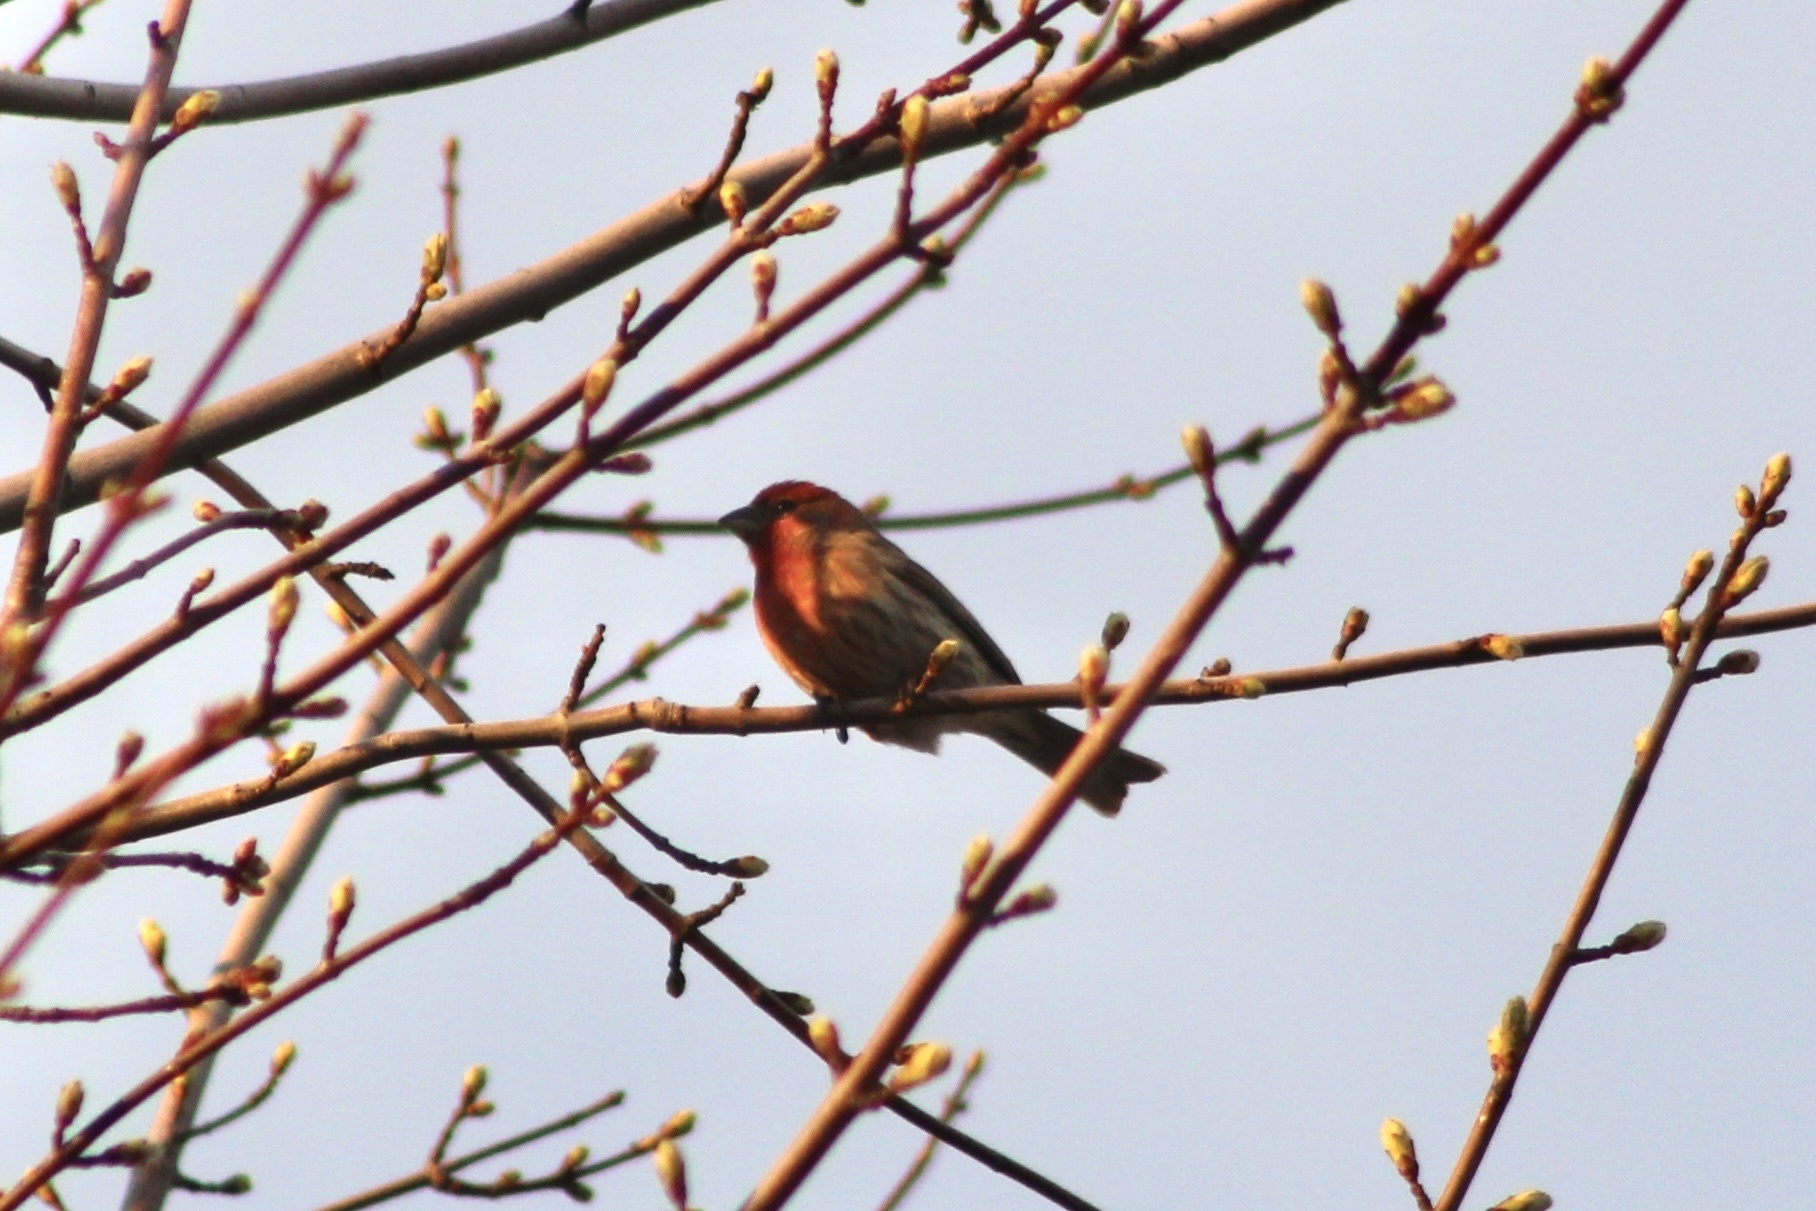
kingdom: Animalia
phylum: Chordata
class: Aves
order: Passeriformes
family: Fringillidae
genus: Haemorhous
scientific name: Haemorhous mexicanus
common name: House finch
